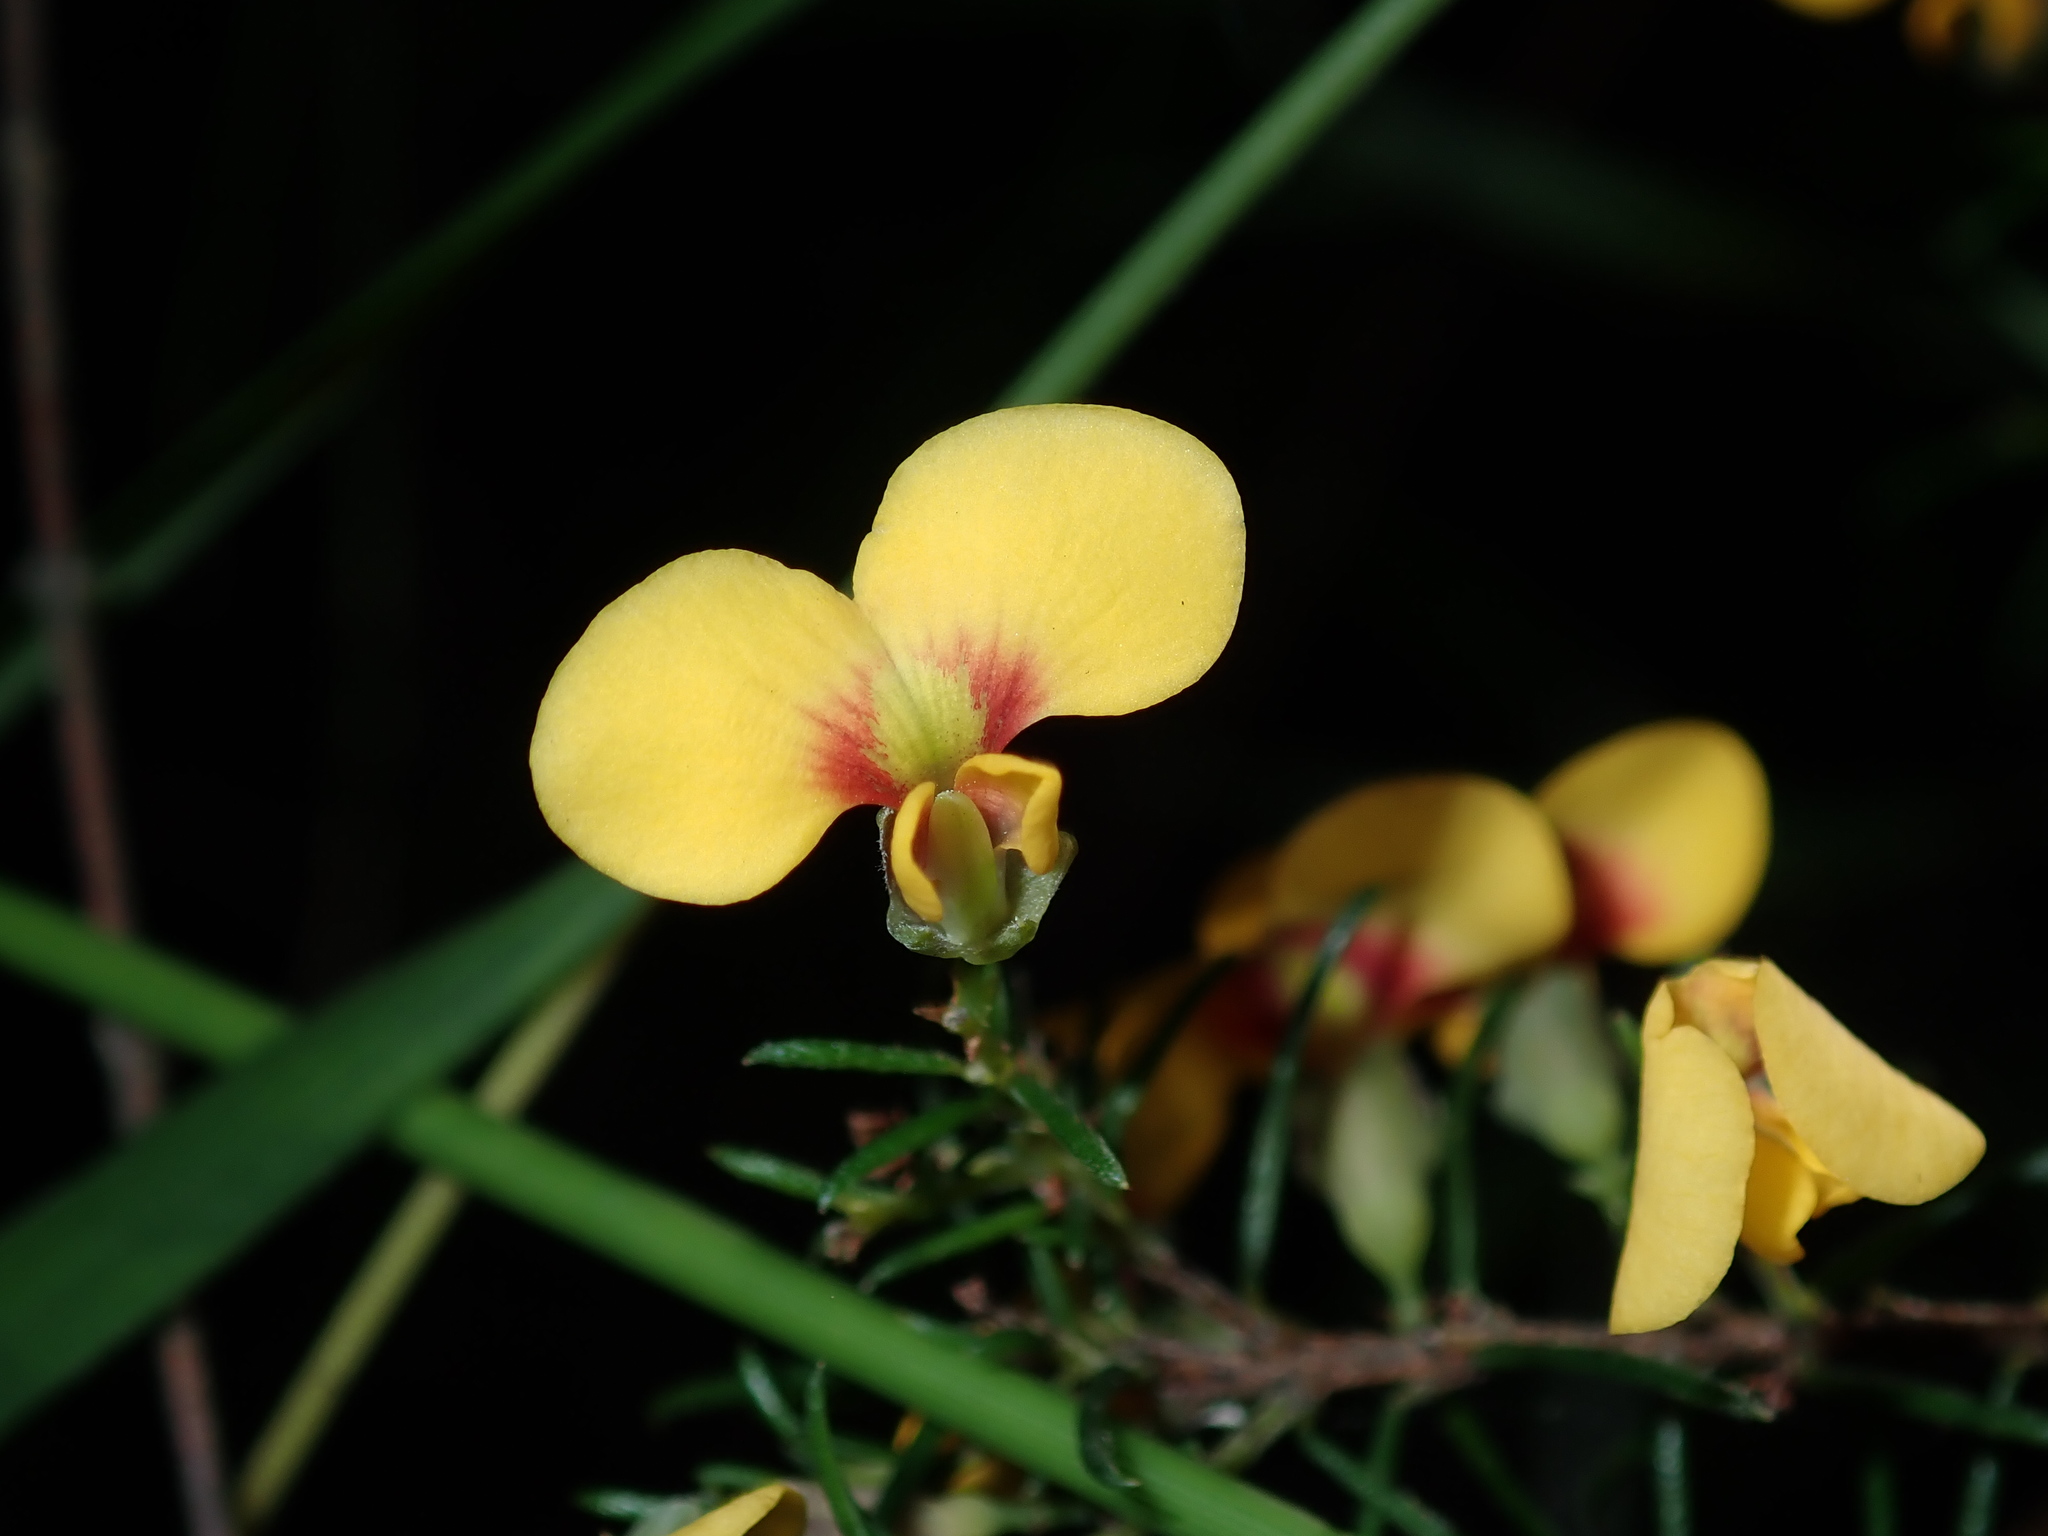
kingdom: Plantae
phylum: Tracheophyta
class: Magnoliopsida
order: Fabales
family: Fabaceae
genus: Dillwynia
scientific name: Dillwynia retorta
